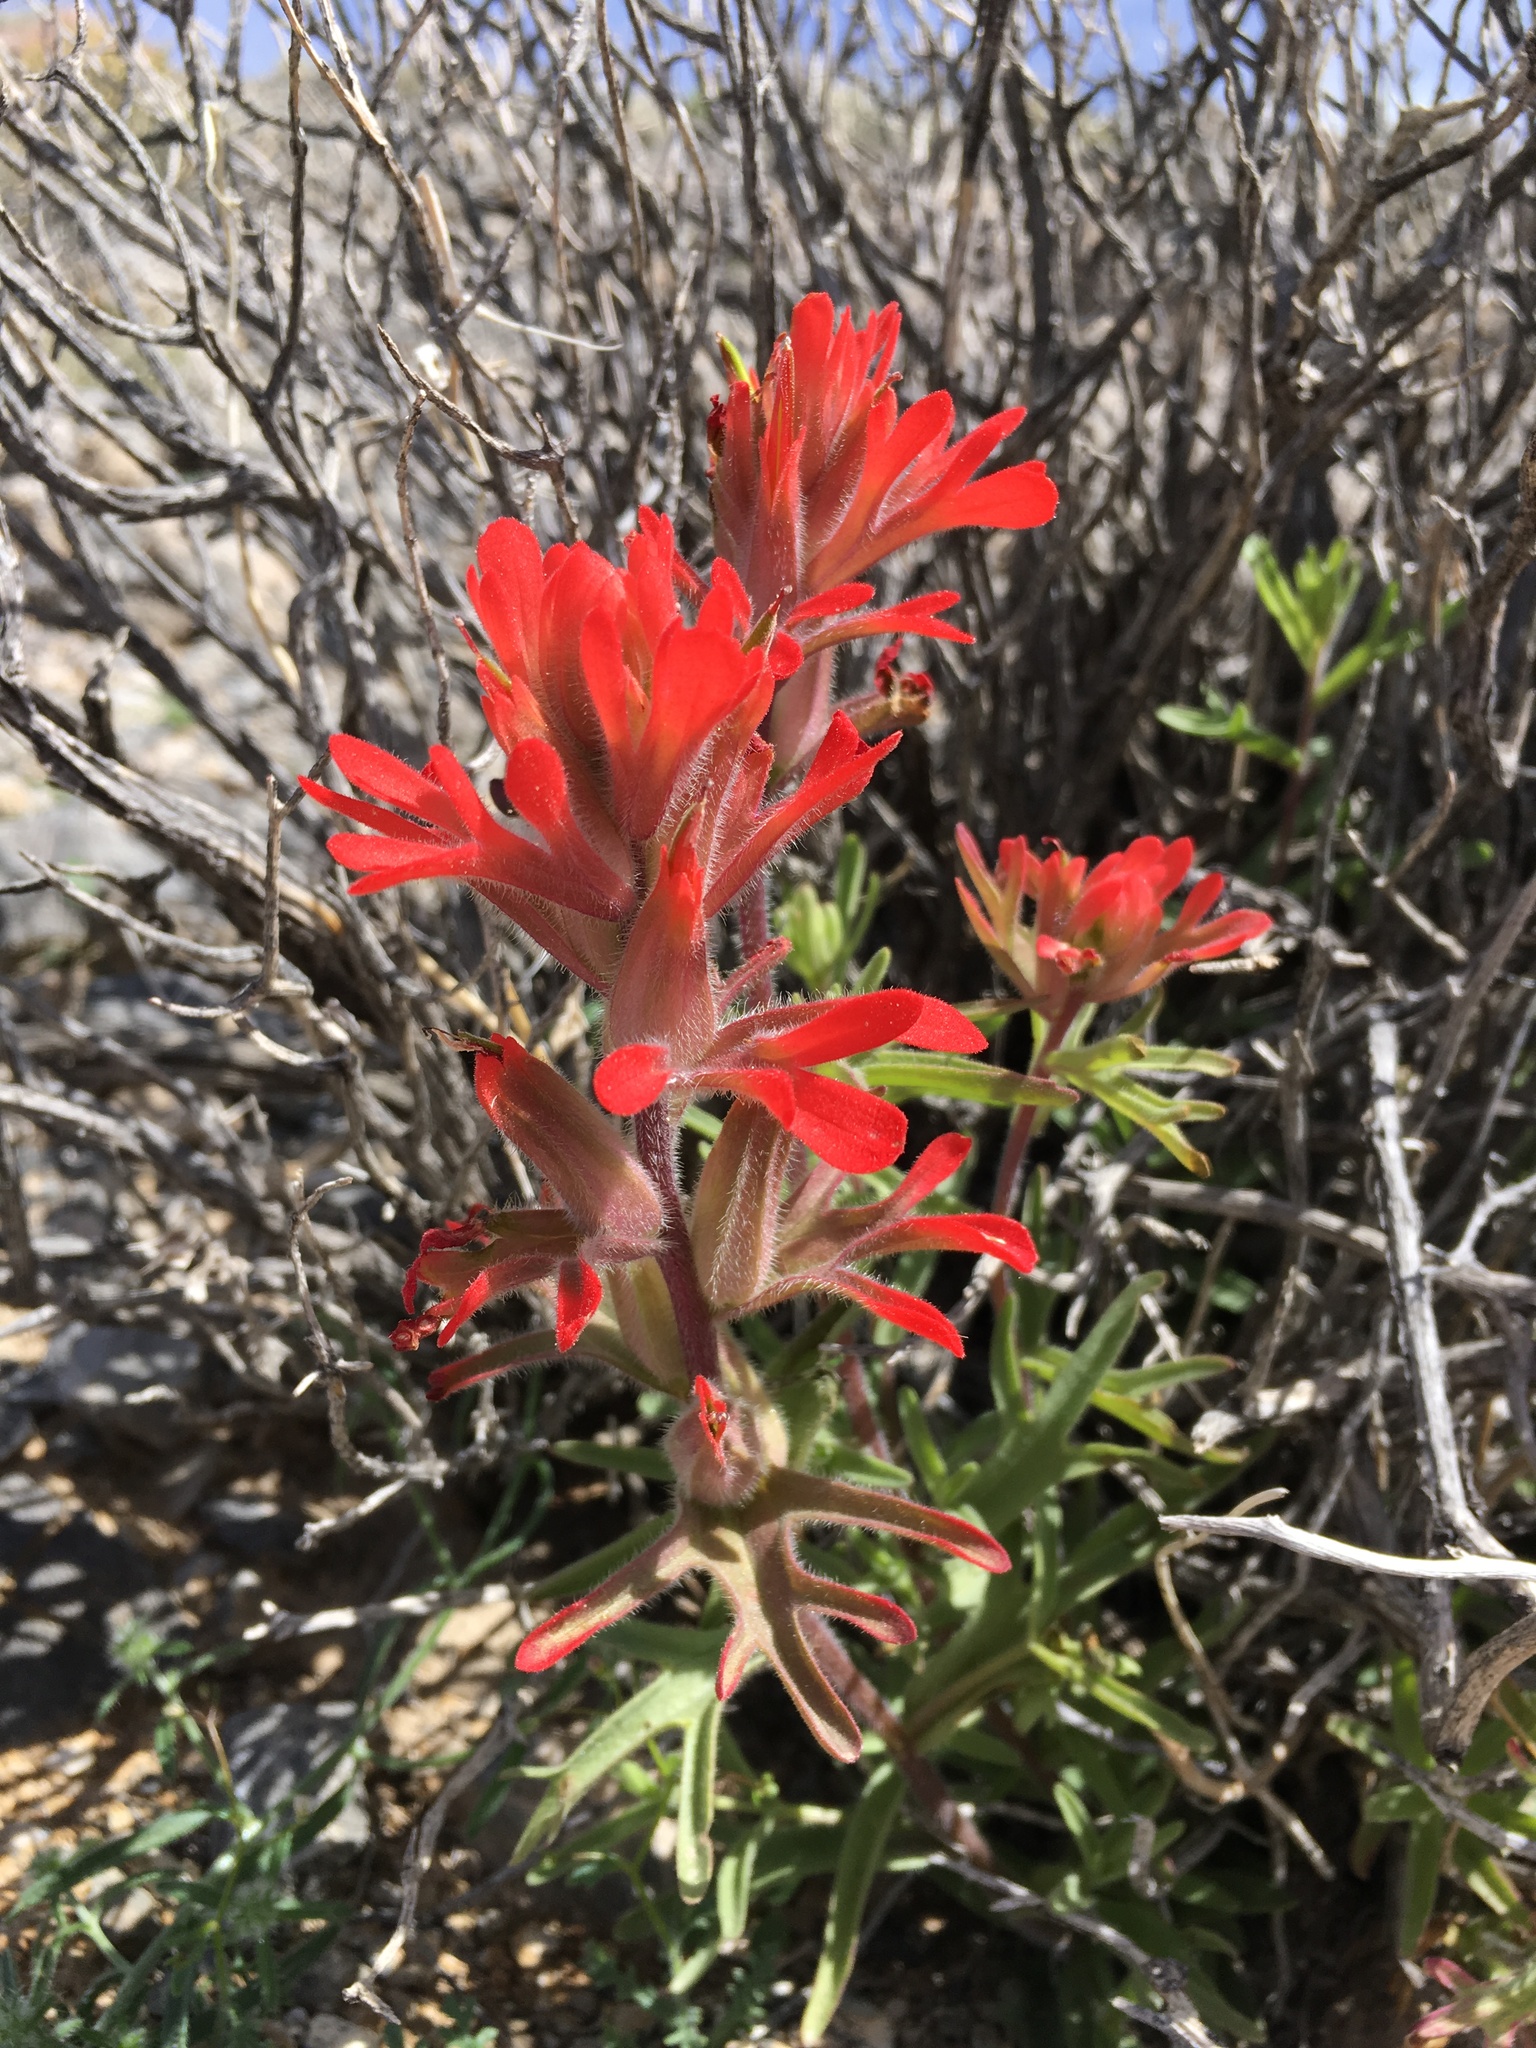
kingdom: Plantae
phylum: Tracheophyta
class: Magnoliopsida
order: Lamiales
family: Orobanchaceae
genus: Castilleja
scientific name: Castilleja chromosa
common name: Desert paintbrush
